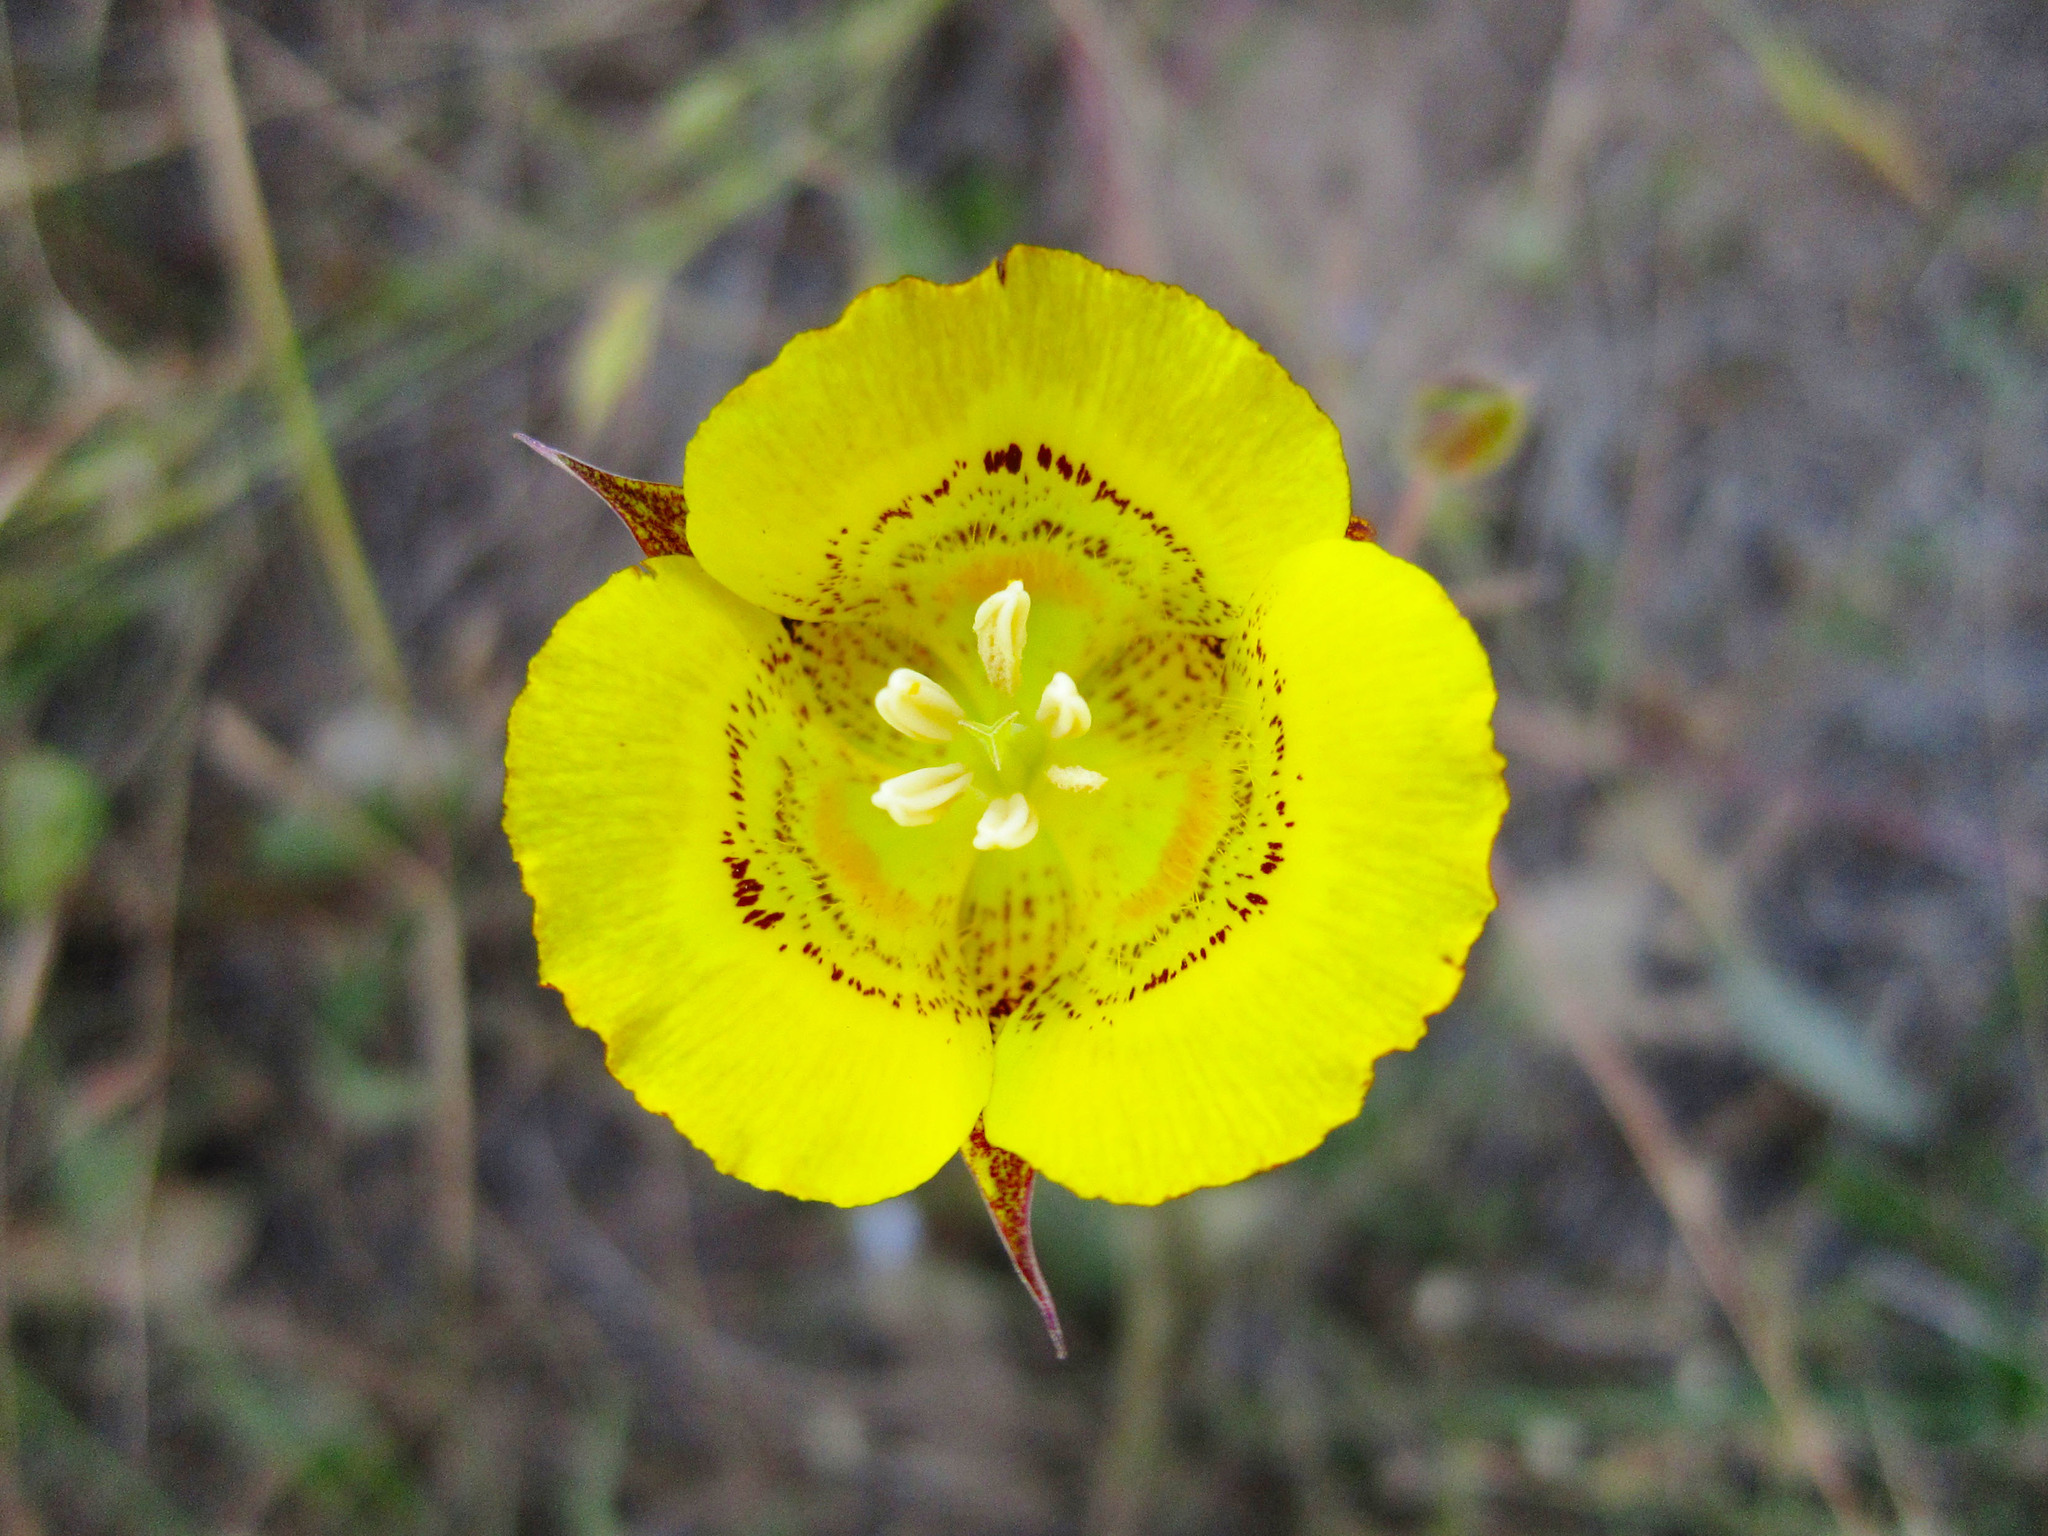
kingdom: Plantae
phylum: Tracheophyta
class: Liliopsida
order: Liliales
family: Liliaceae
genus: Calochortus
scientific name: Calochortus luteus
